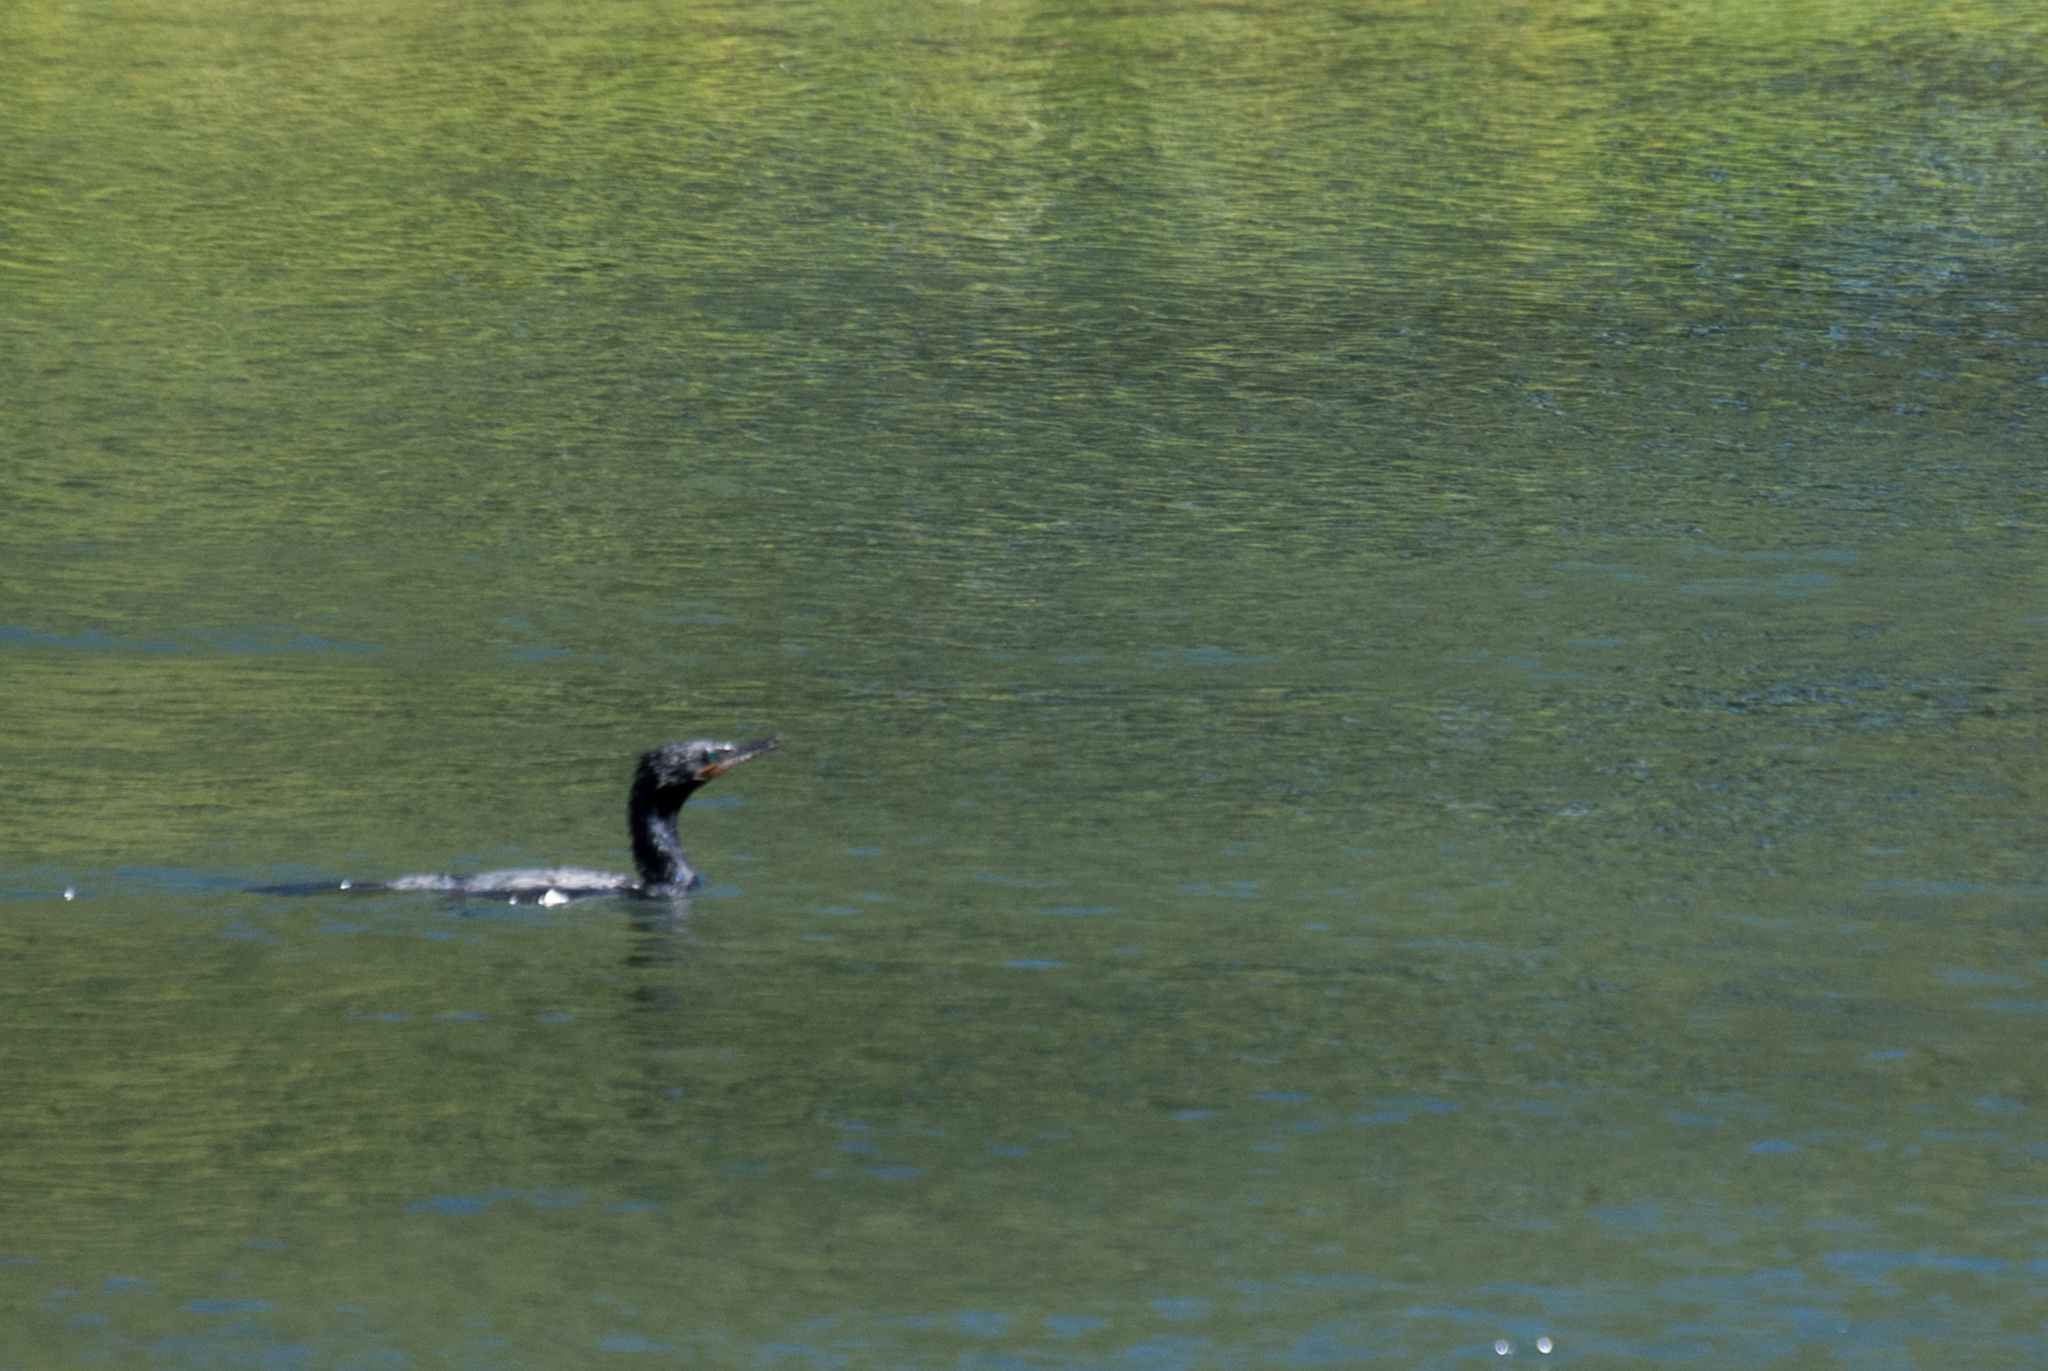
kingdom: Animalia
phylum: Chordata
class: Aves
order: Suliformes
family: Phalacrocoracidae
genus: Phalacrocorax
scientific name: Phalacrocorax brasilianus
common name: Neotropic cormorant
